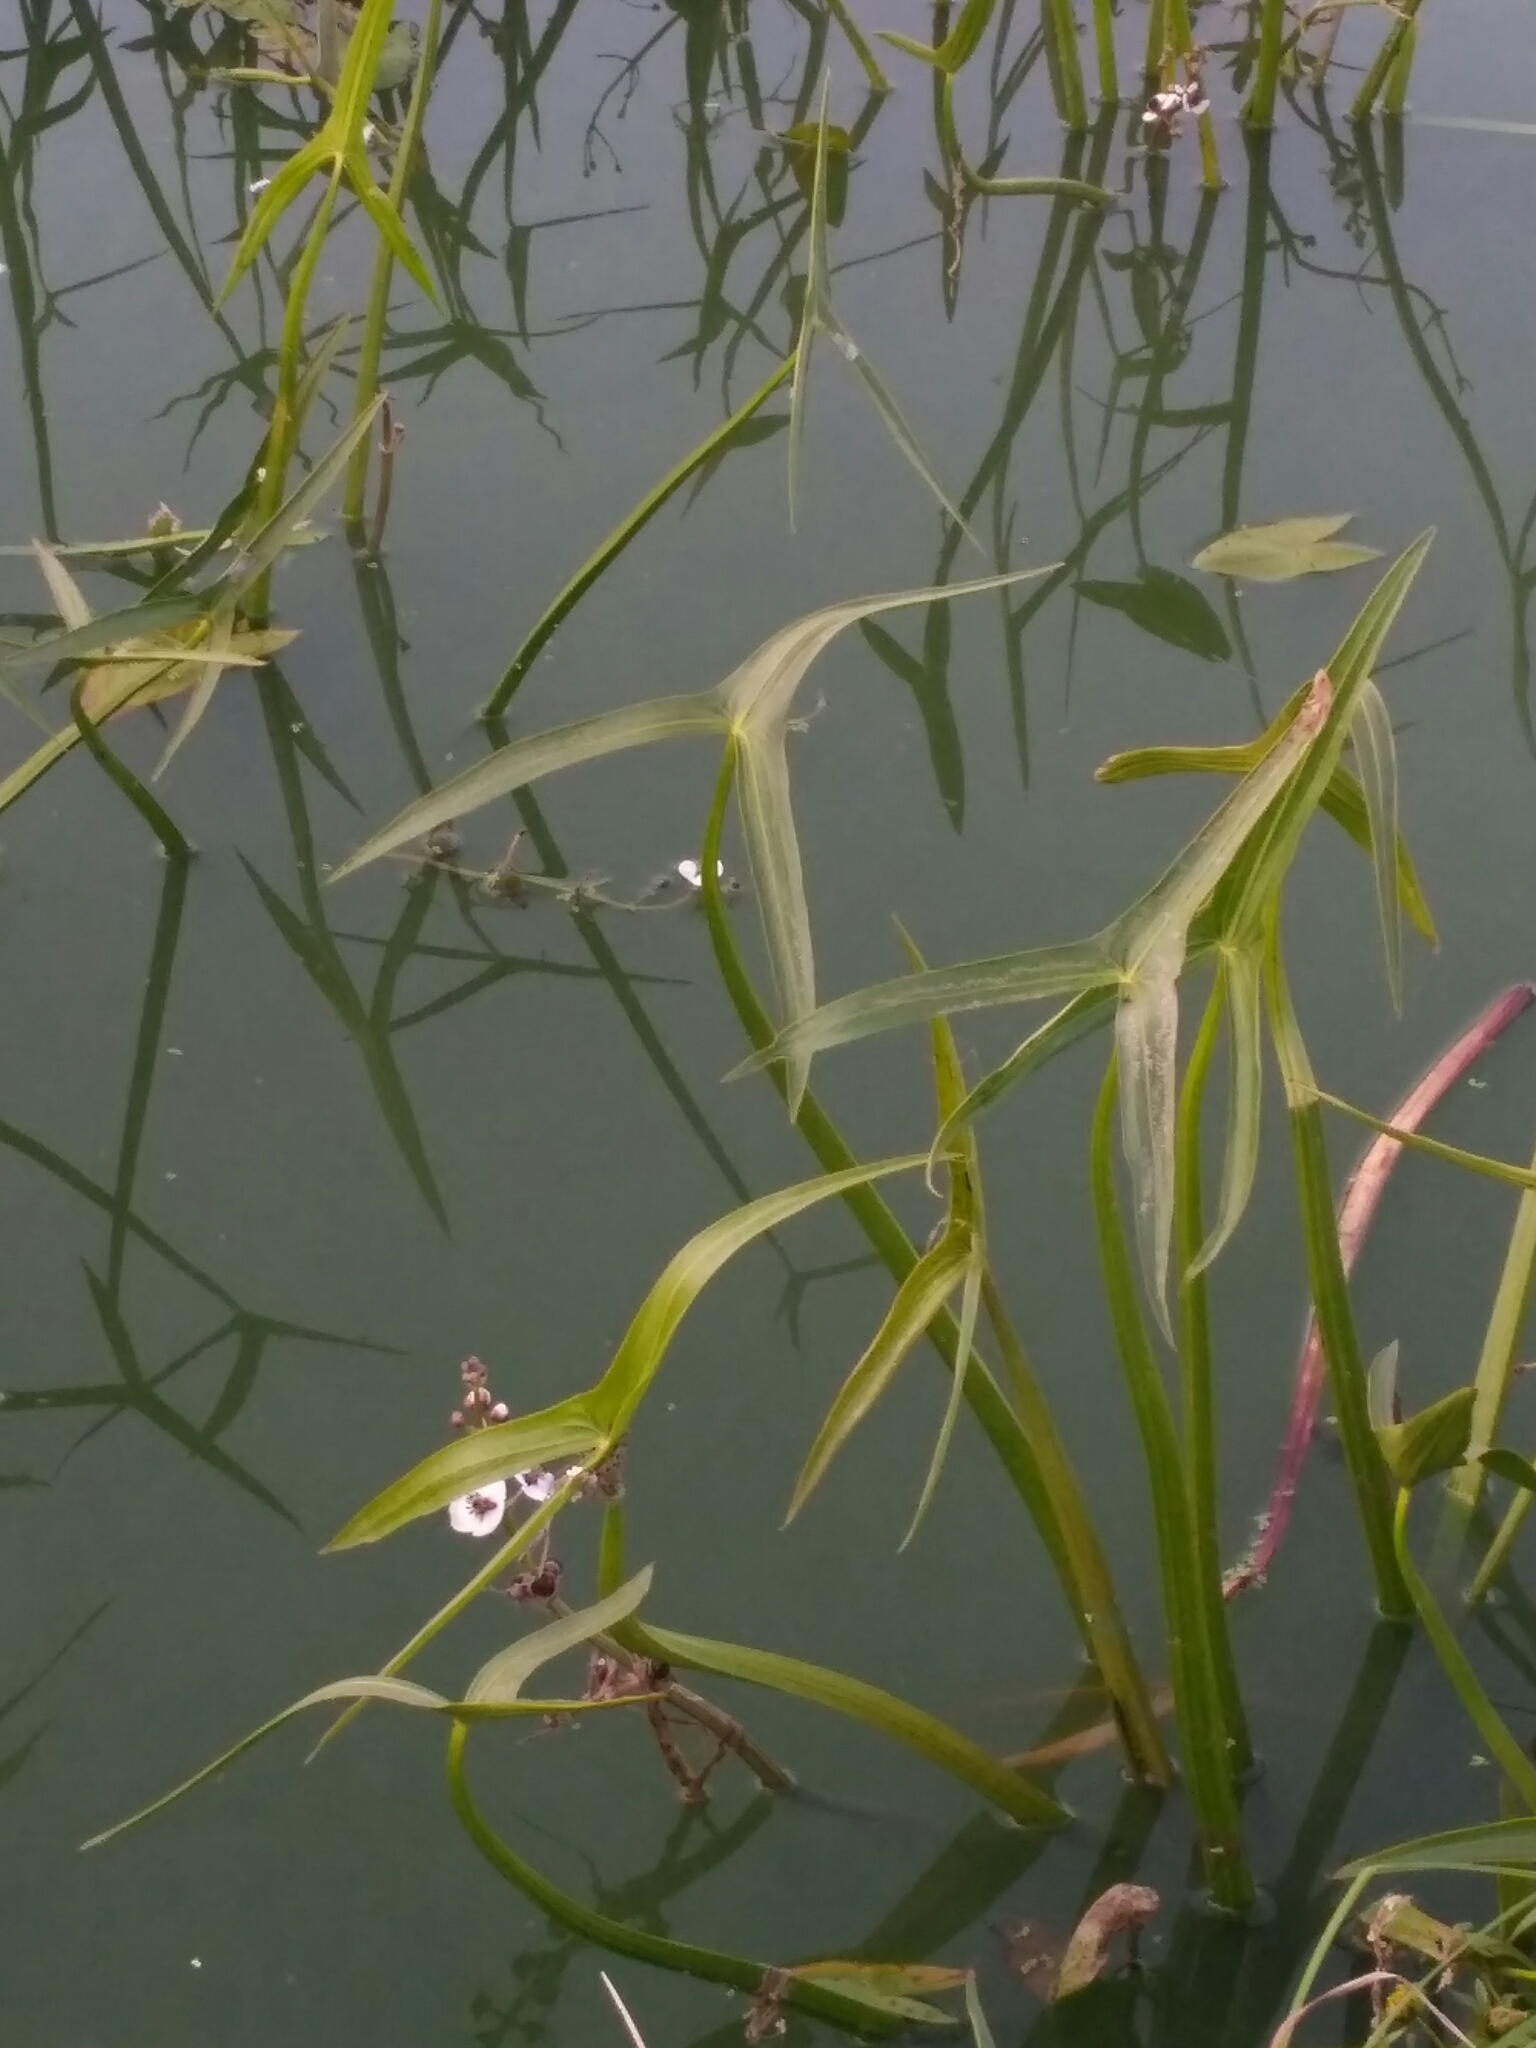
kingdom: Plantae
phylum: Tracheophyta
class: Liliopsida
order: Alismatales
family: Alismataceae
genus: Sagittaria
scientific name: Sagittaria sagittifolia
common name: Arrowhead
